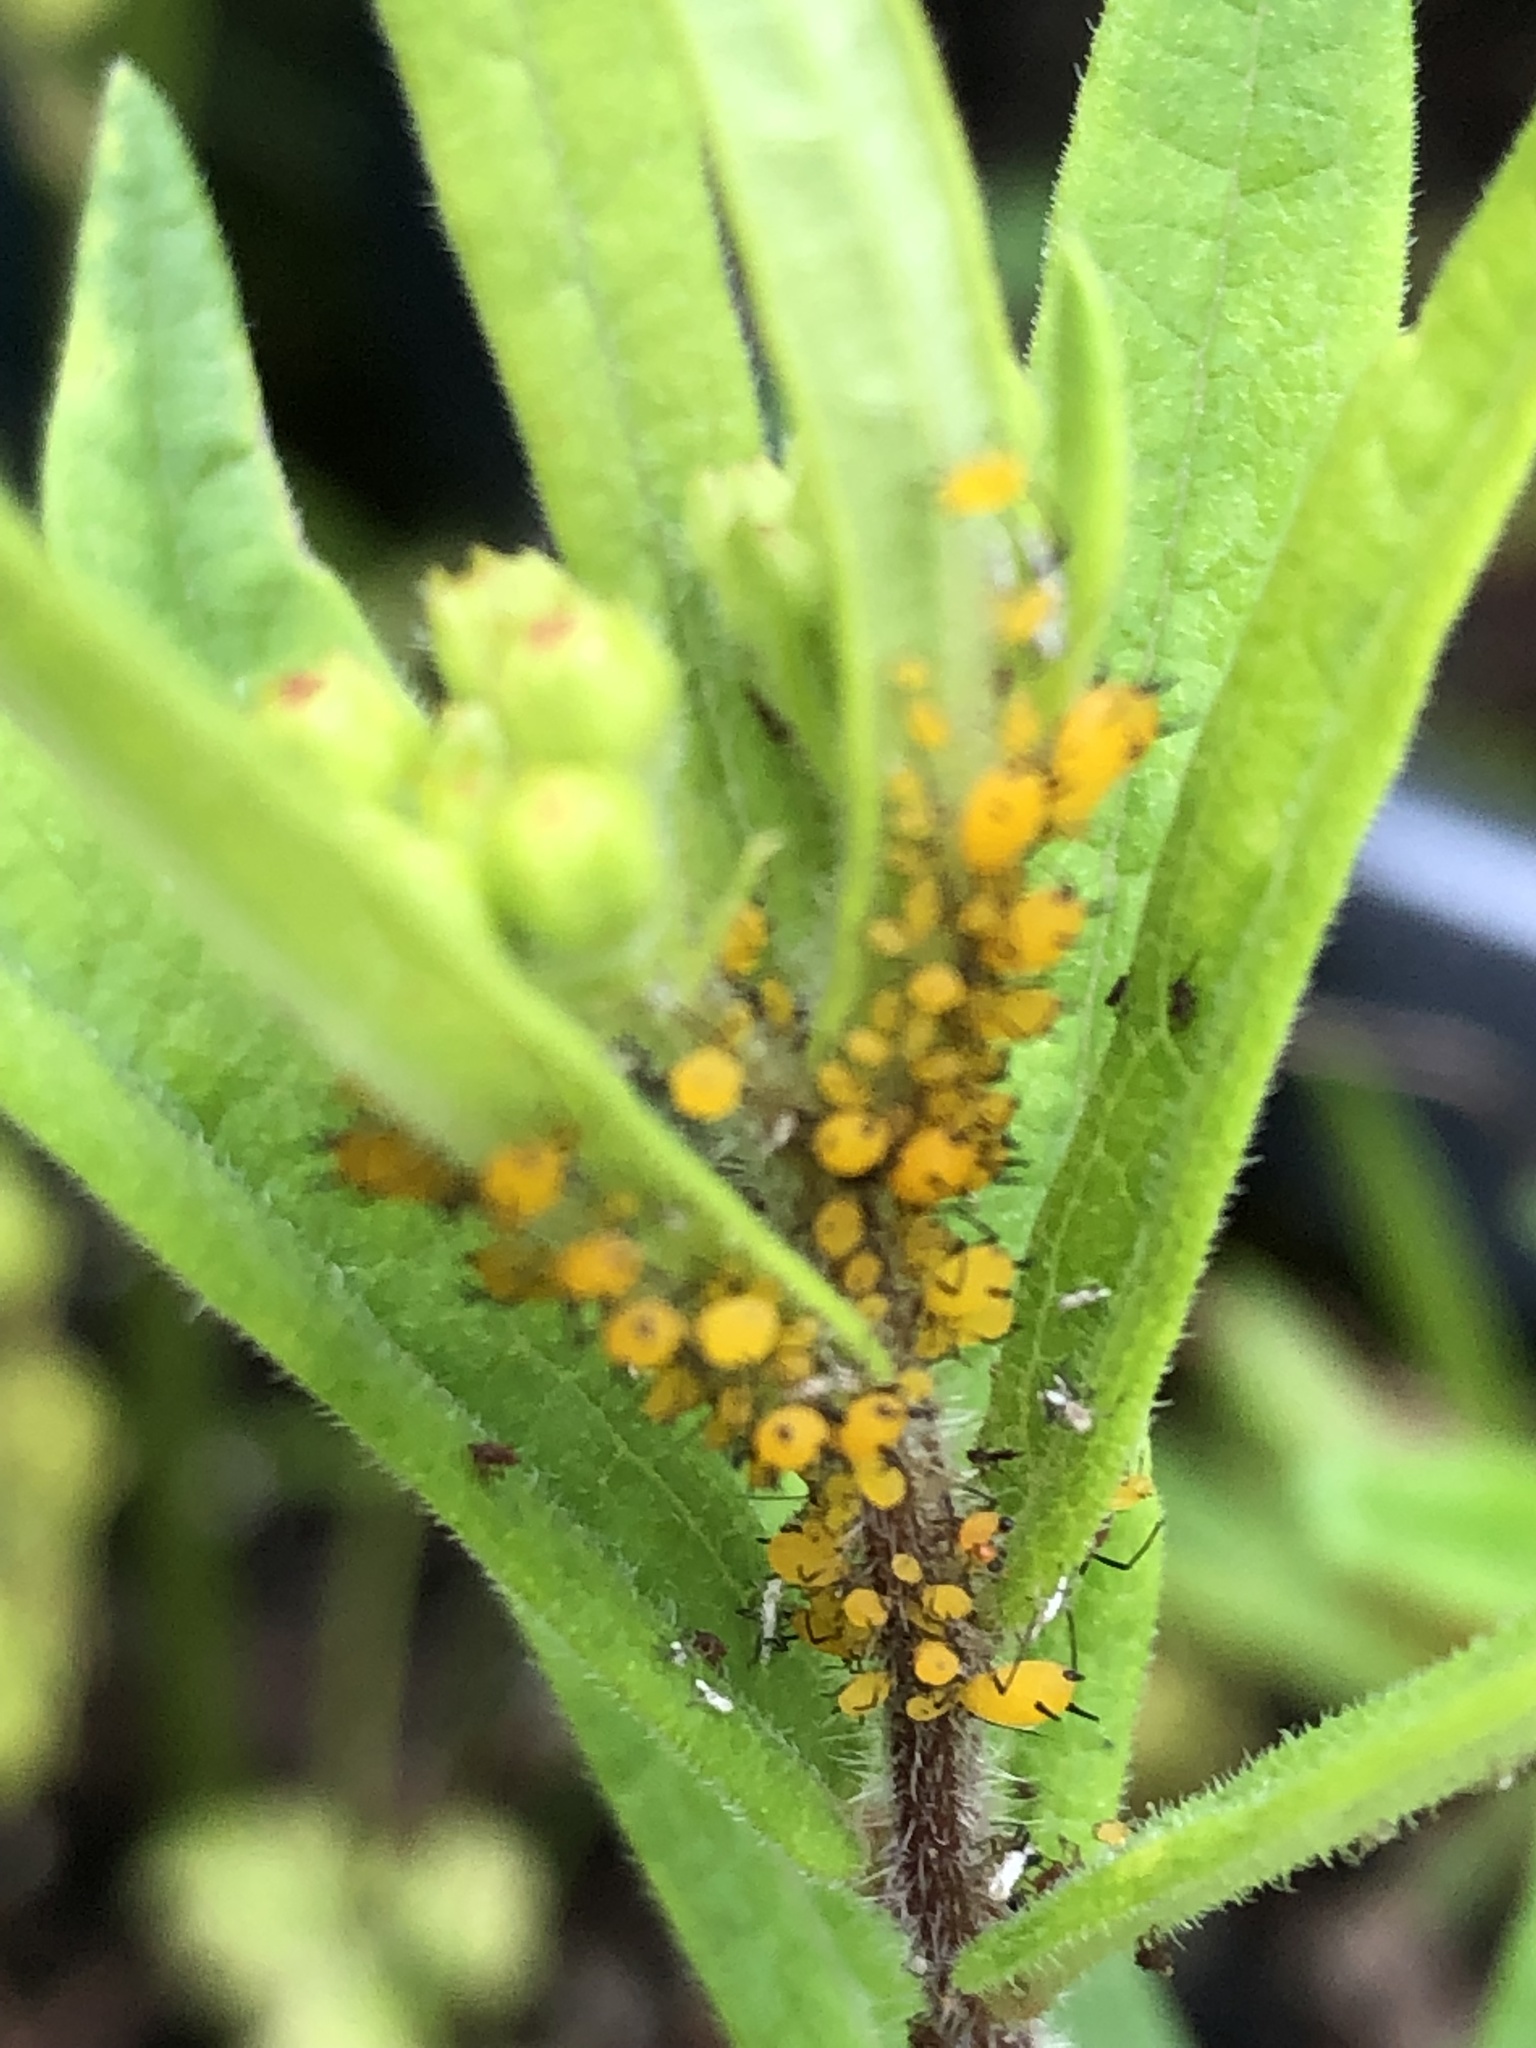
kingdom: Animalia
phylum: Arthropoda
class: Insecta
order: Hemiptera
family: Aphididae
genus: Aphis
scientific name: Aphis nerii
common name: Oleander aphid
